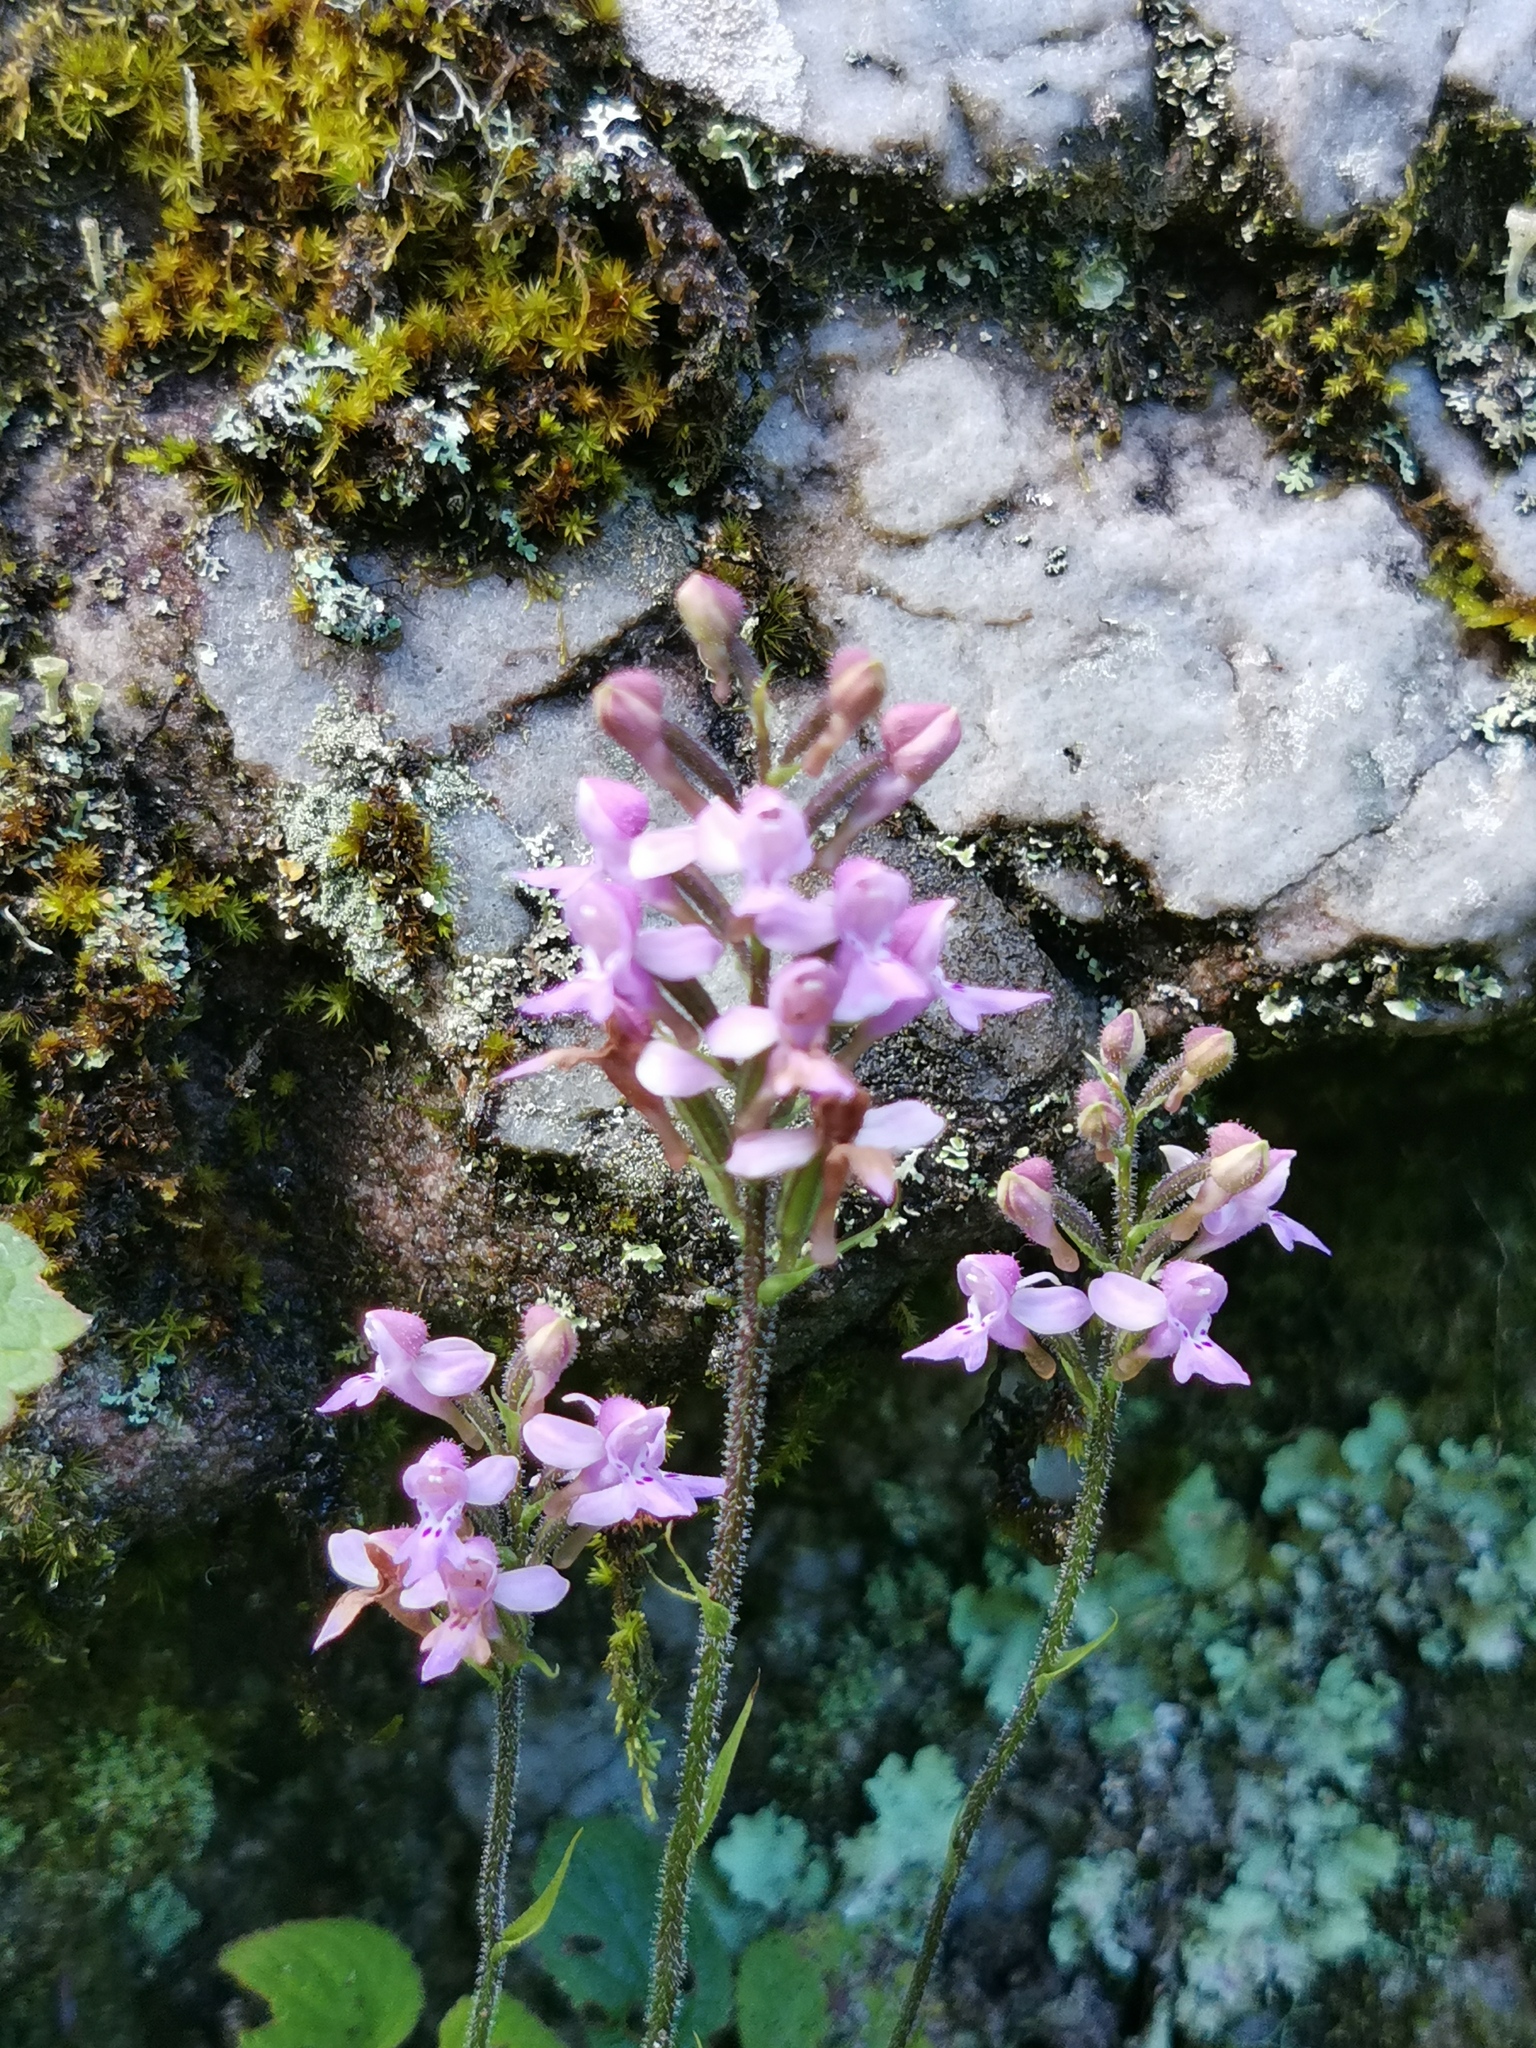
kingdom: Plantae
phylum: Tracheophyta
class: Liliopsida
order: Asparagales
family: Orchidaceae
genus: Cynorkis
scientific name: Cynorkis kassneriana
